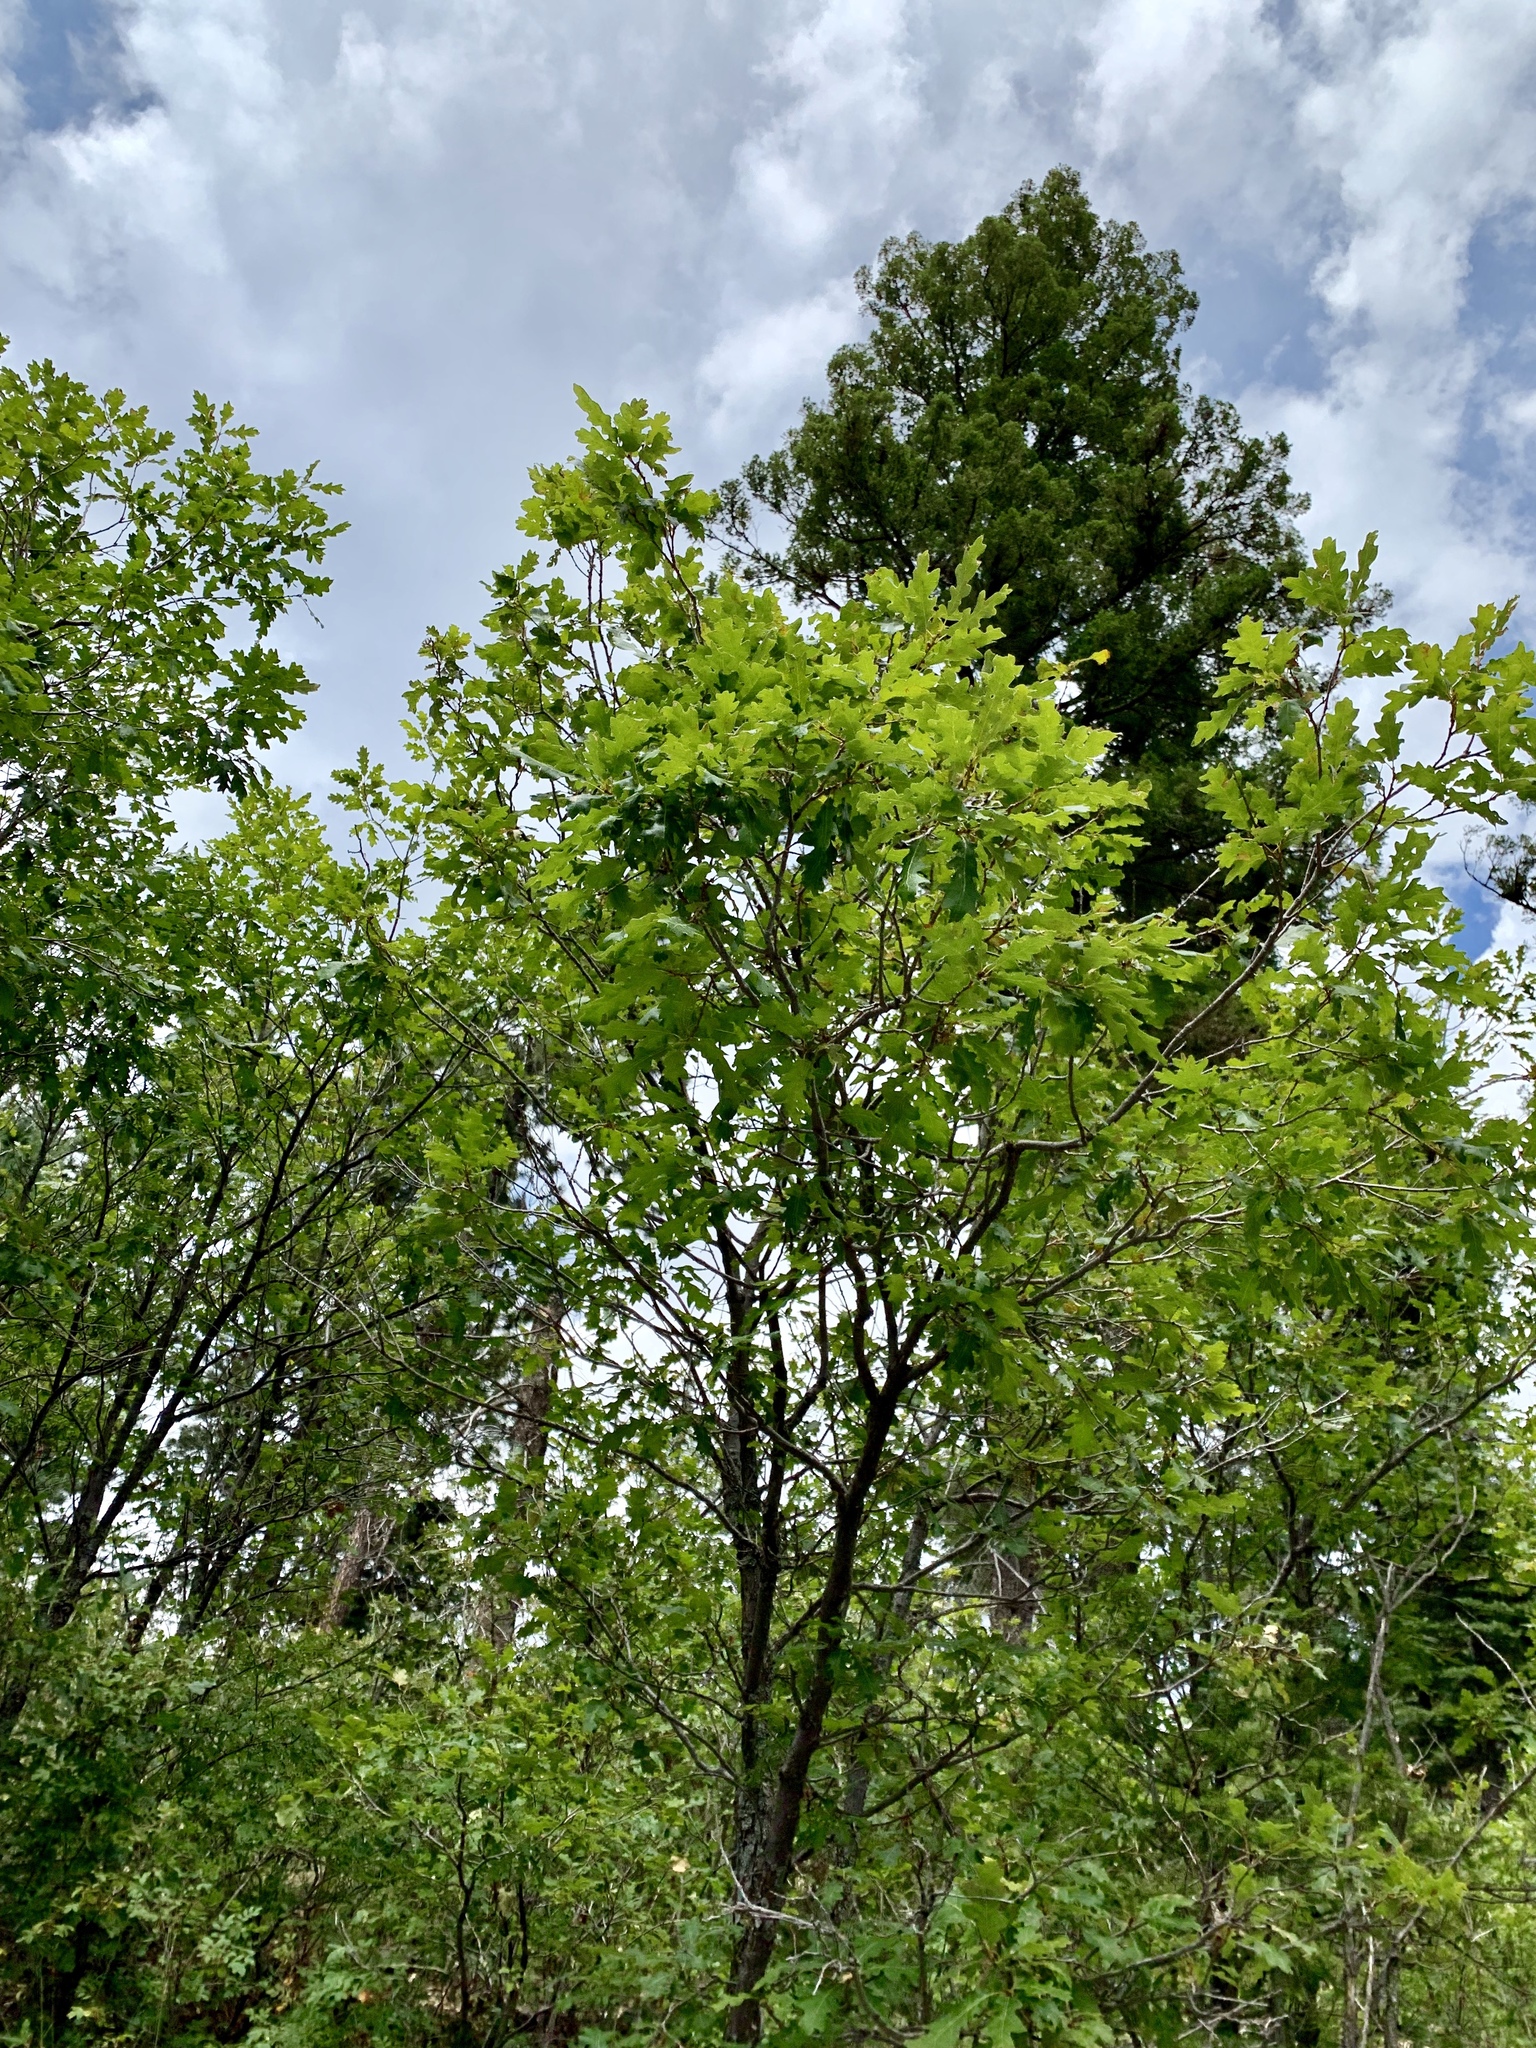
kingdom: Plantae
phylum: Tracheophyta
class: Magnoliopsida
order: Fagales
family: Fagaceae
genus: Quercus
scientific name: Quercus gambelii
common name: Gambel oak
